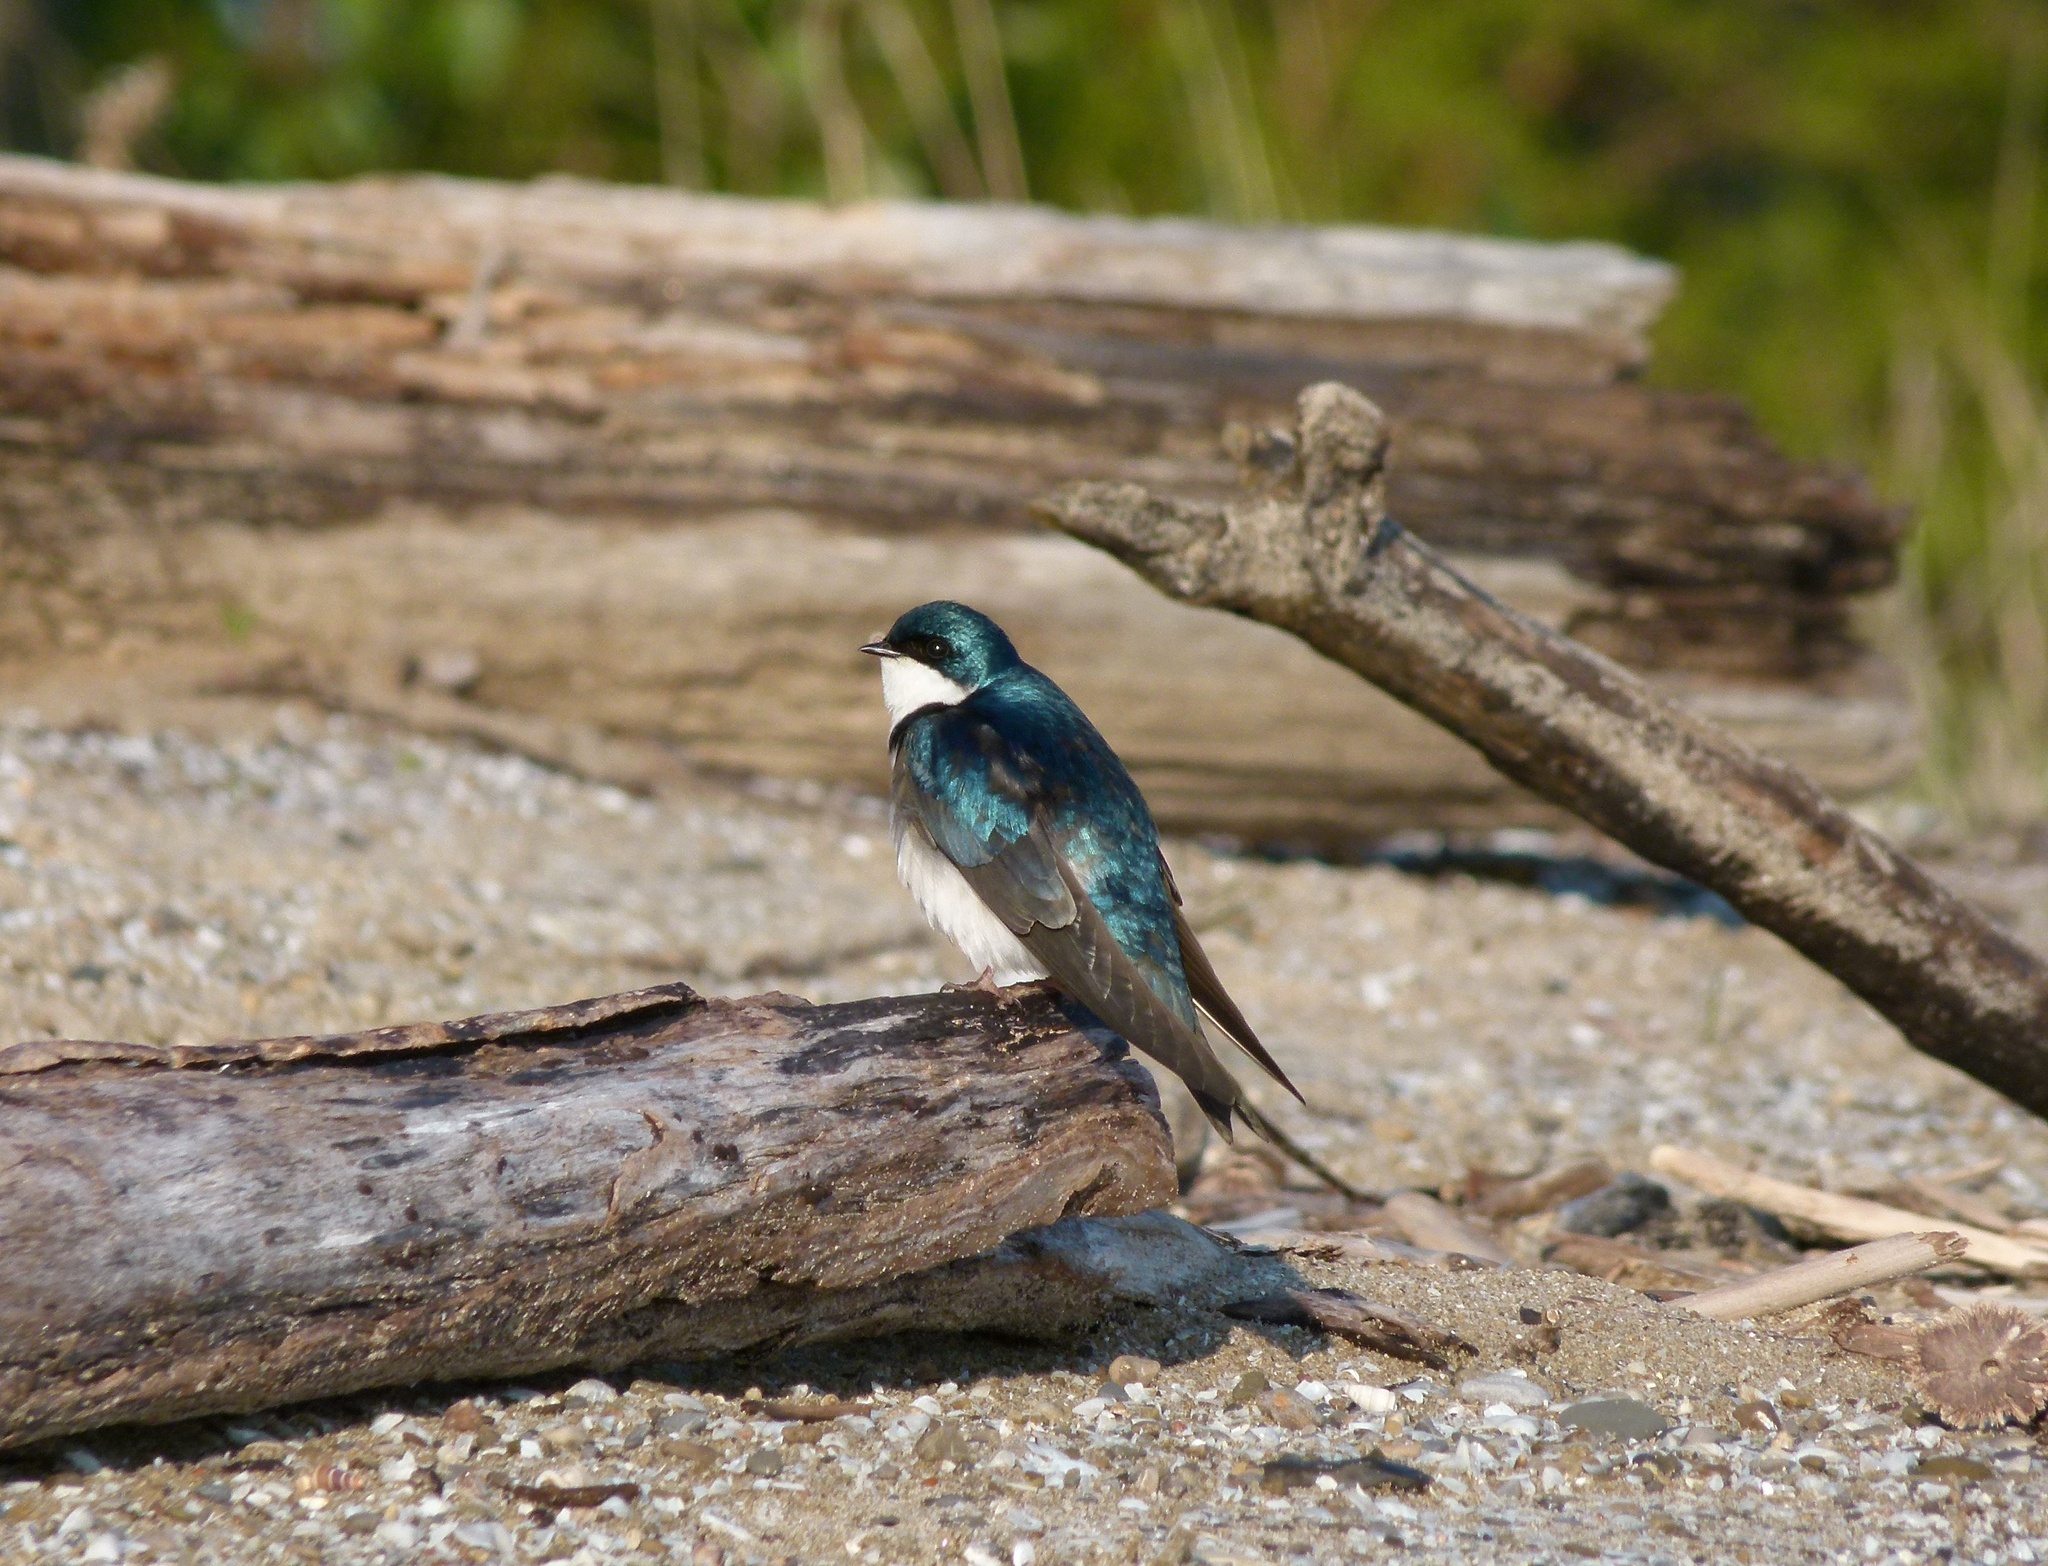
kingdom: Animalia
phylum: Chordata
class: Aves
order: Passeriformes
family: Hirundinidae
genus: Tachycineta
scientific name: Tachycineta bicolor
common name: Tree swallow
